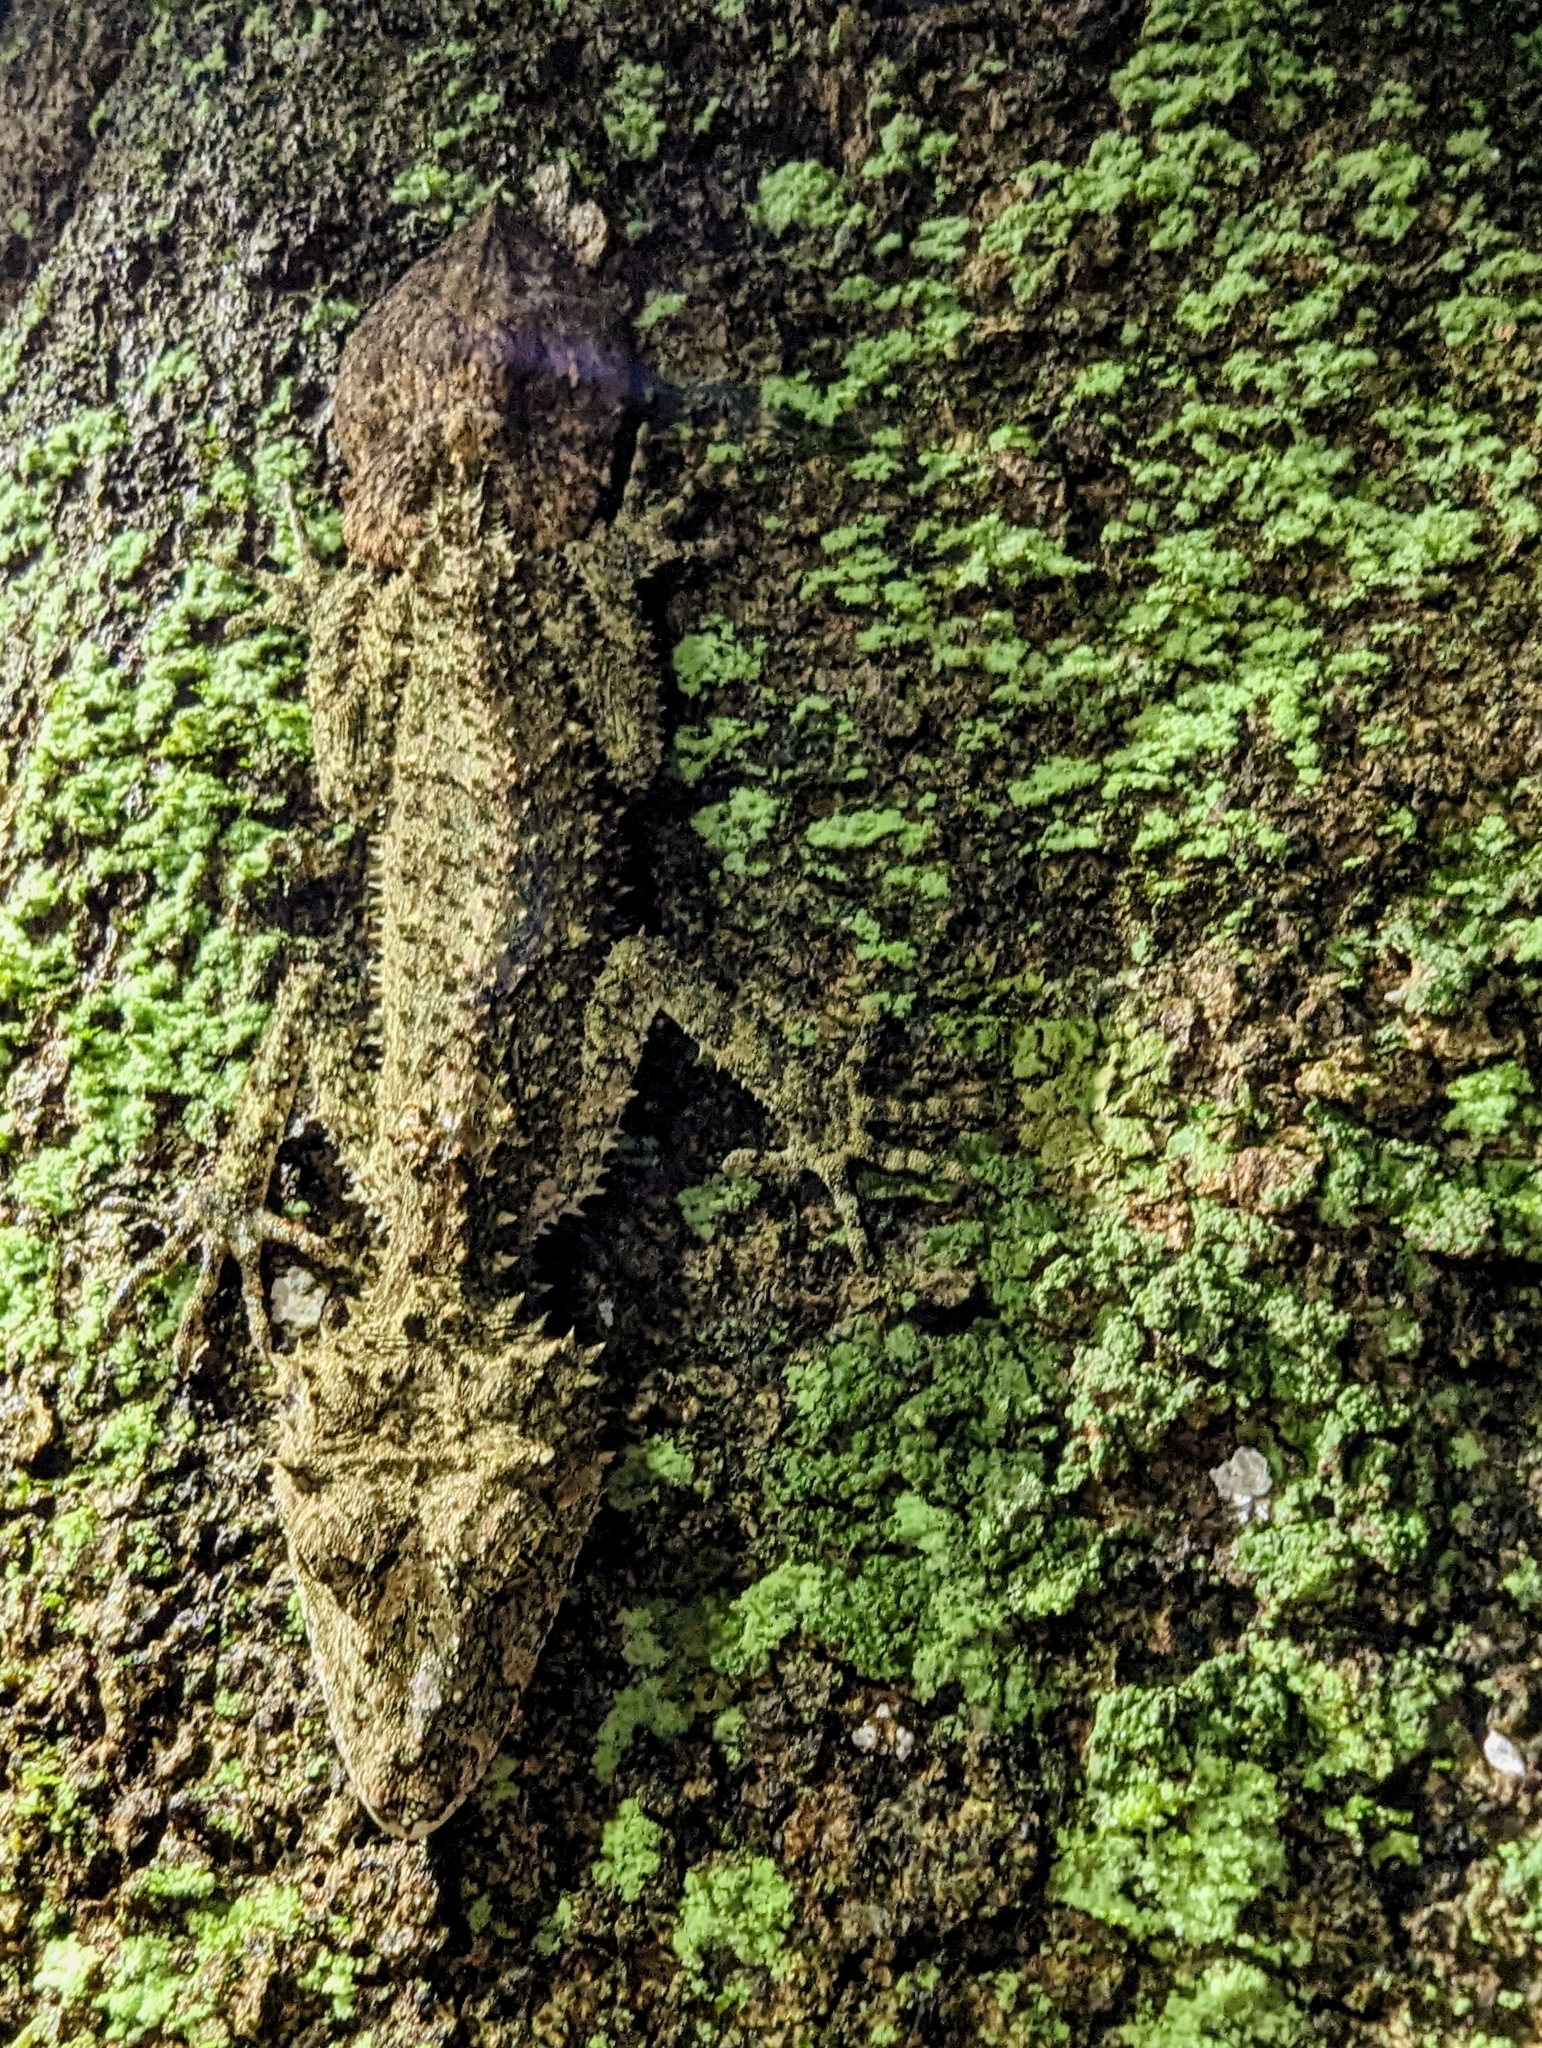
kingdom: Animalia
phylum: Chordata
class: Squamata
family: Carphodactylidae
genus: Saltuarius
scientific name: Saltuarius cornutus
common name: Leaf-tailed gecko
